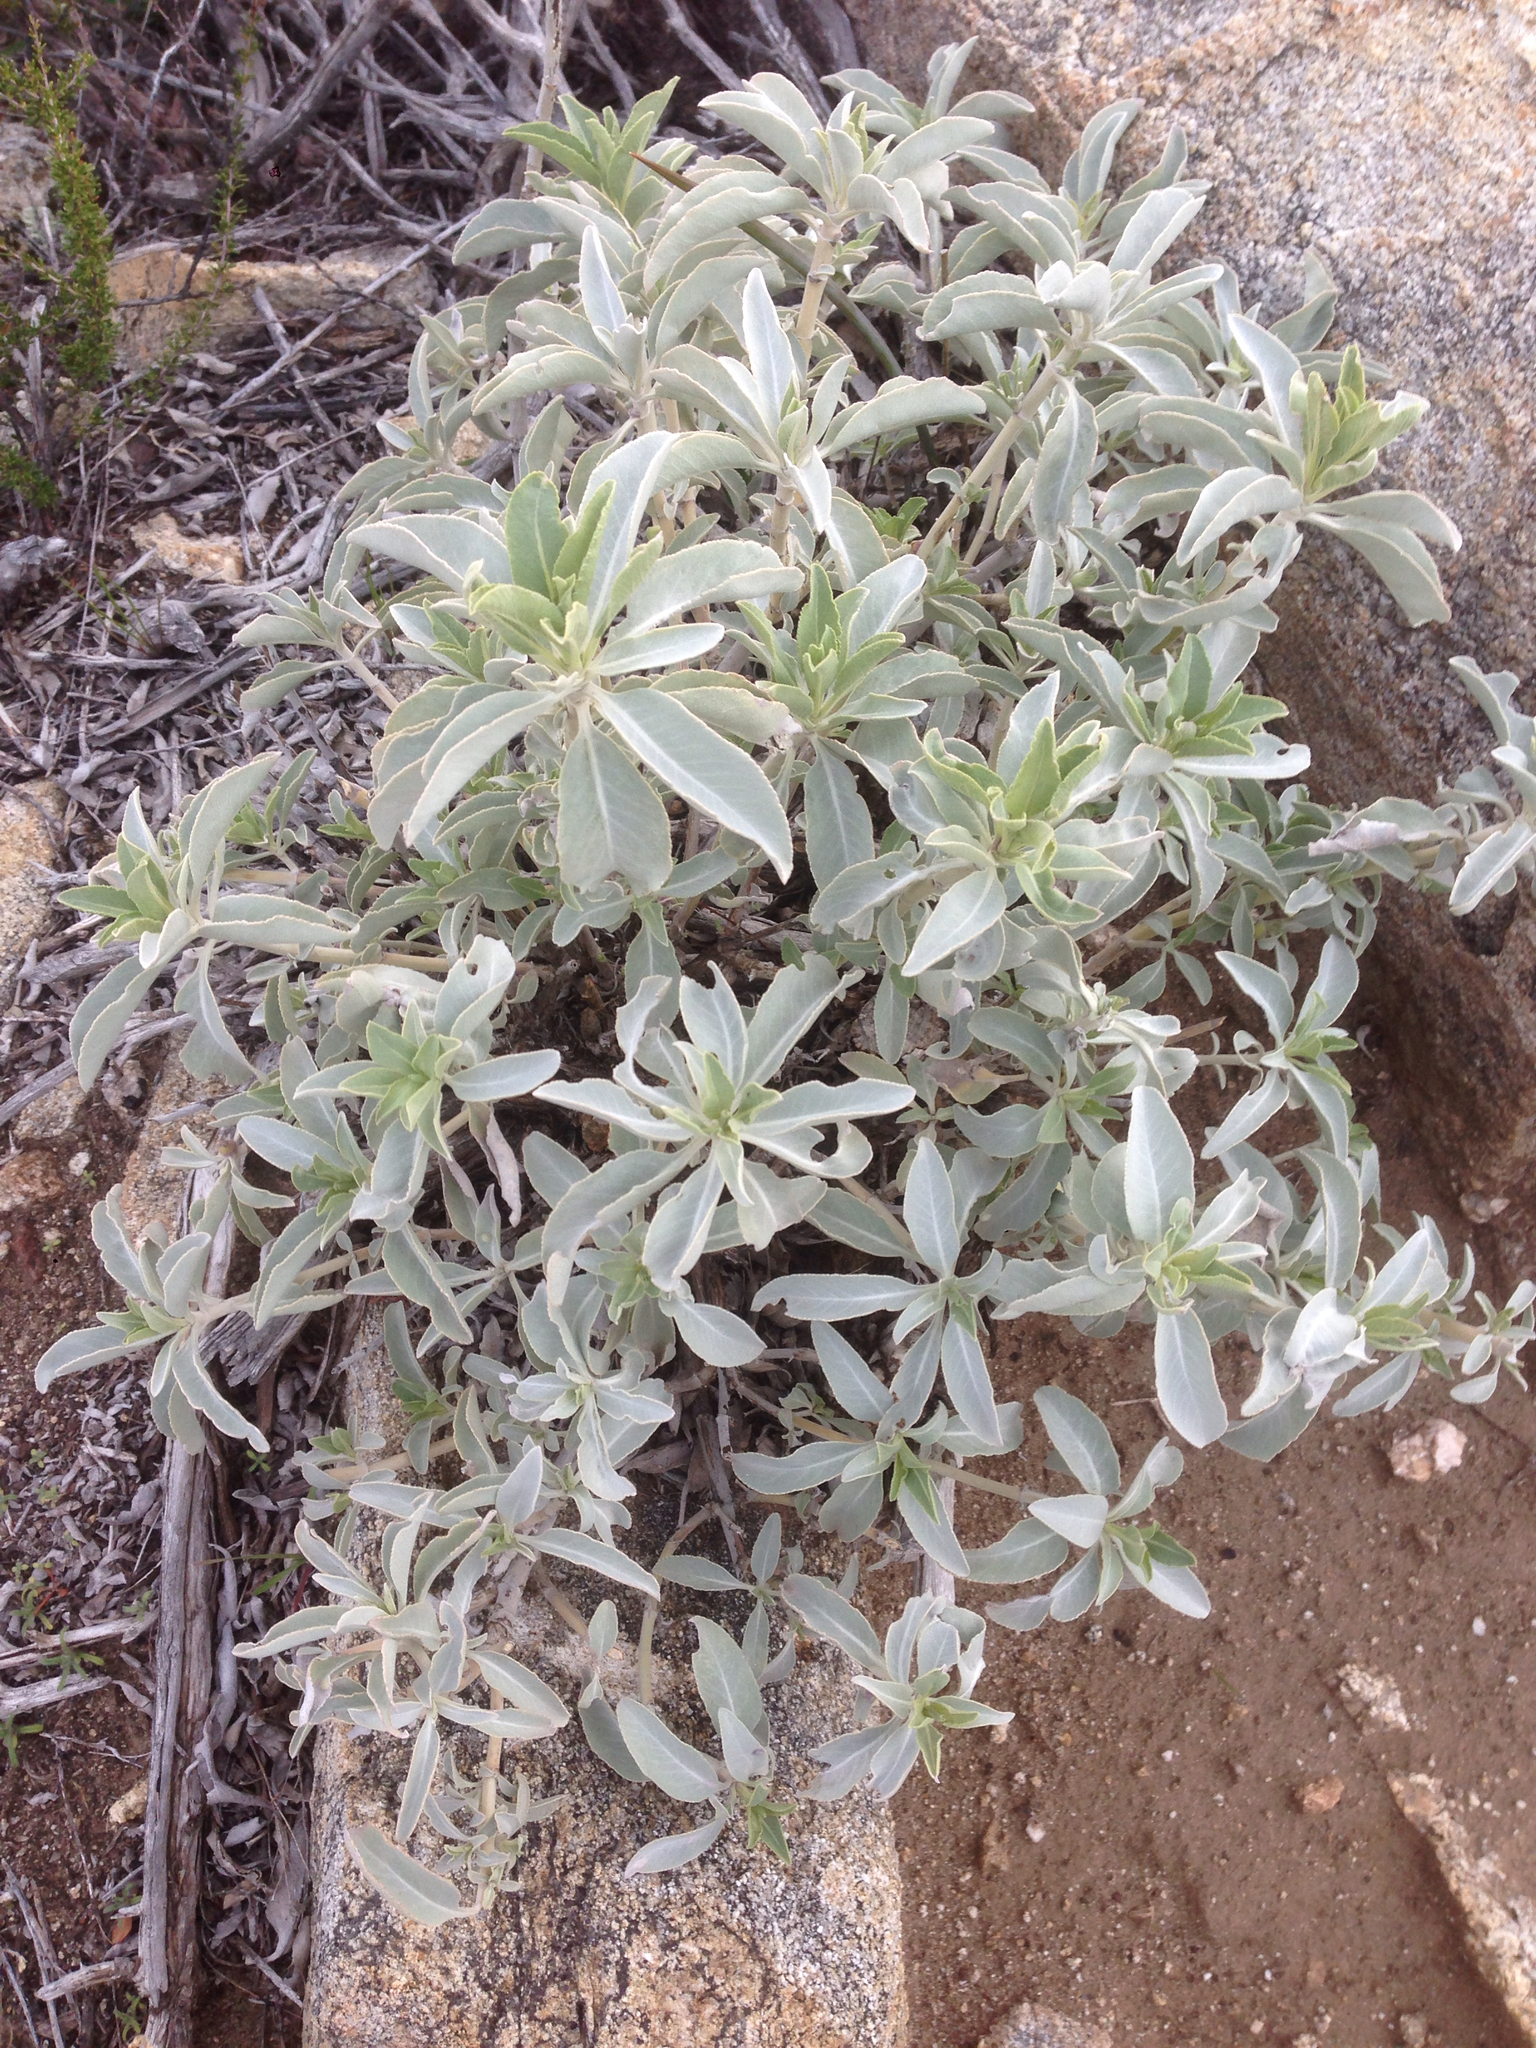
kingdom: Plantae
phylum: Tracheophyta
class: Magnoliopsida
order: Lamiales
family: Lamiaceae
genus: Salvia
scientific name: Salvia apiana
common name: White sage
